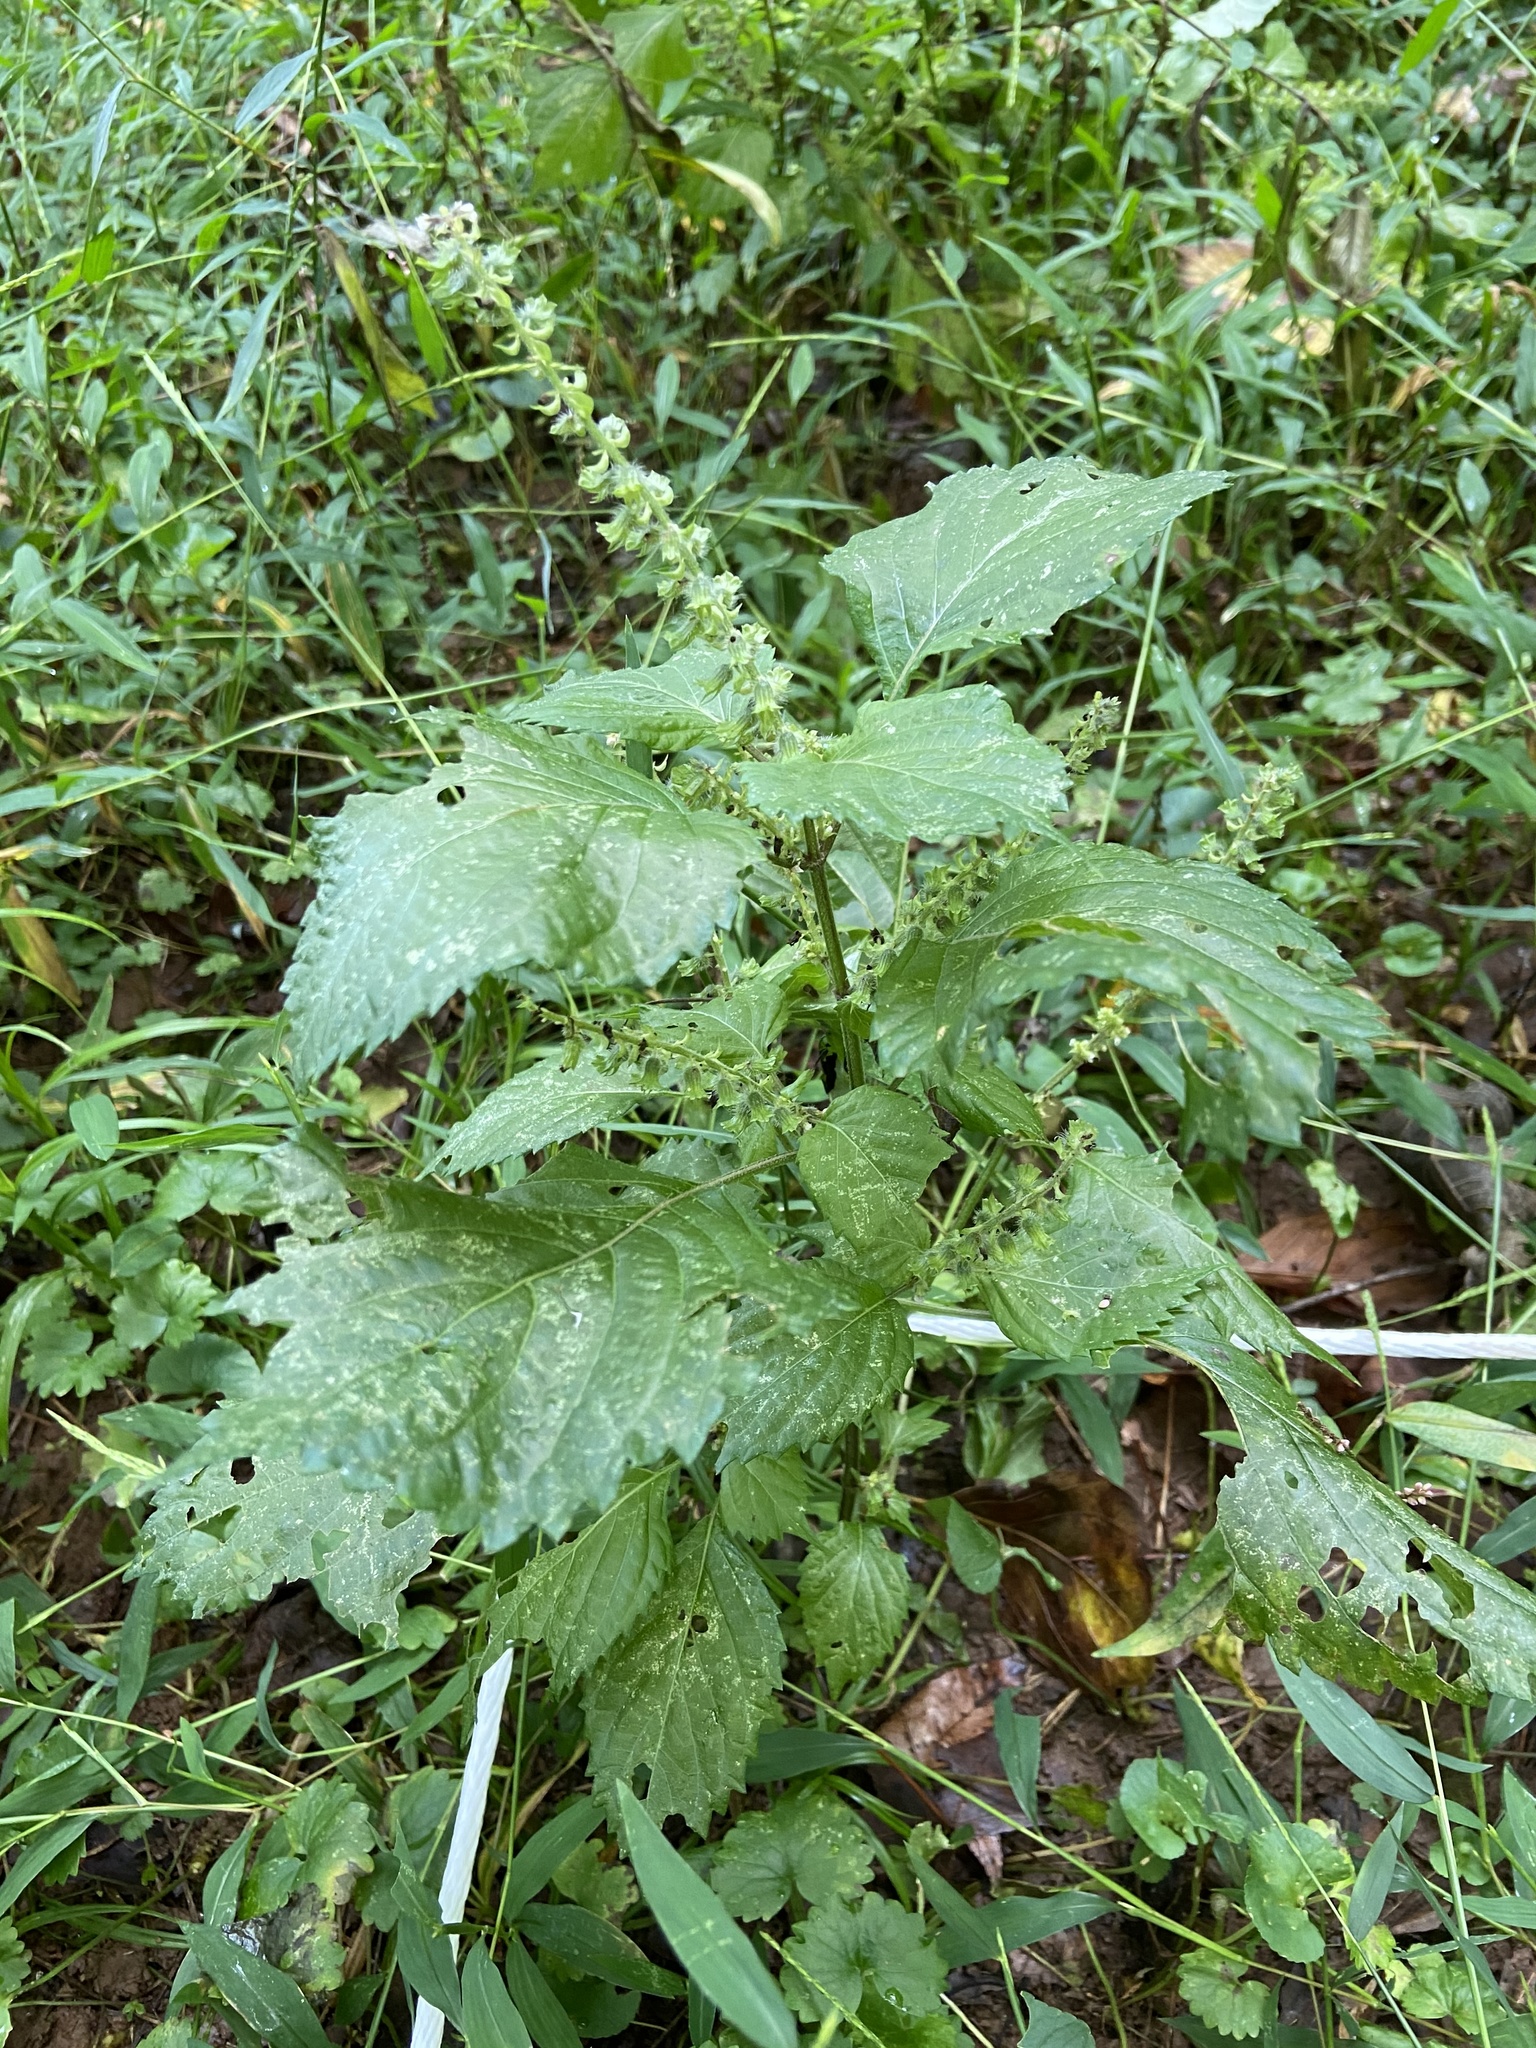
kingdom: Plantae
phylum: Tracheophyta
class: Magnoliopsida
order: Lamiales
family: Lamiaceae
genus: Perilla
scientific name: Perilla frutescens
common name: Perilla
